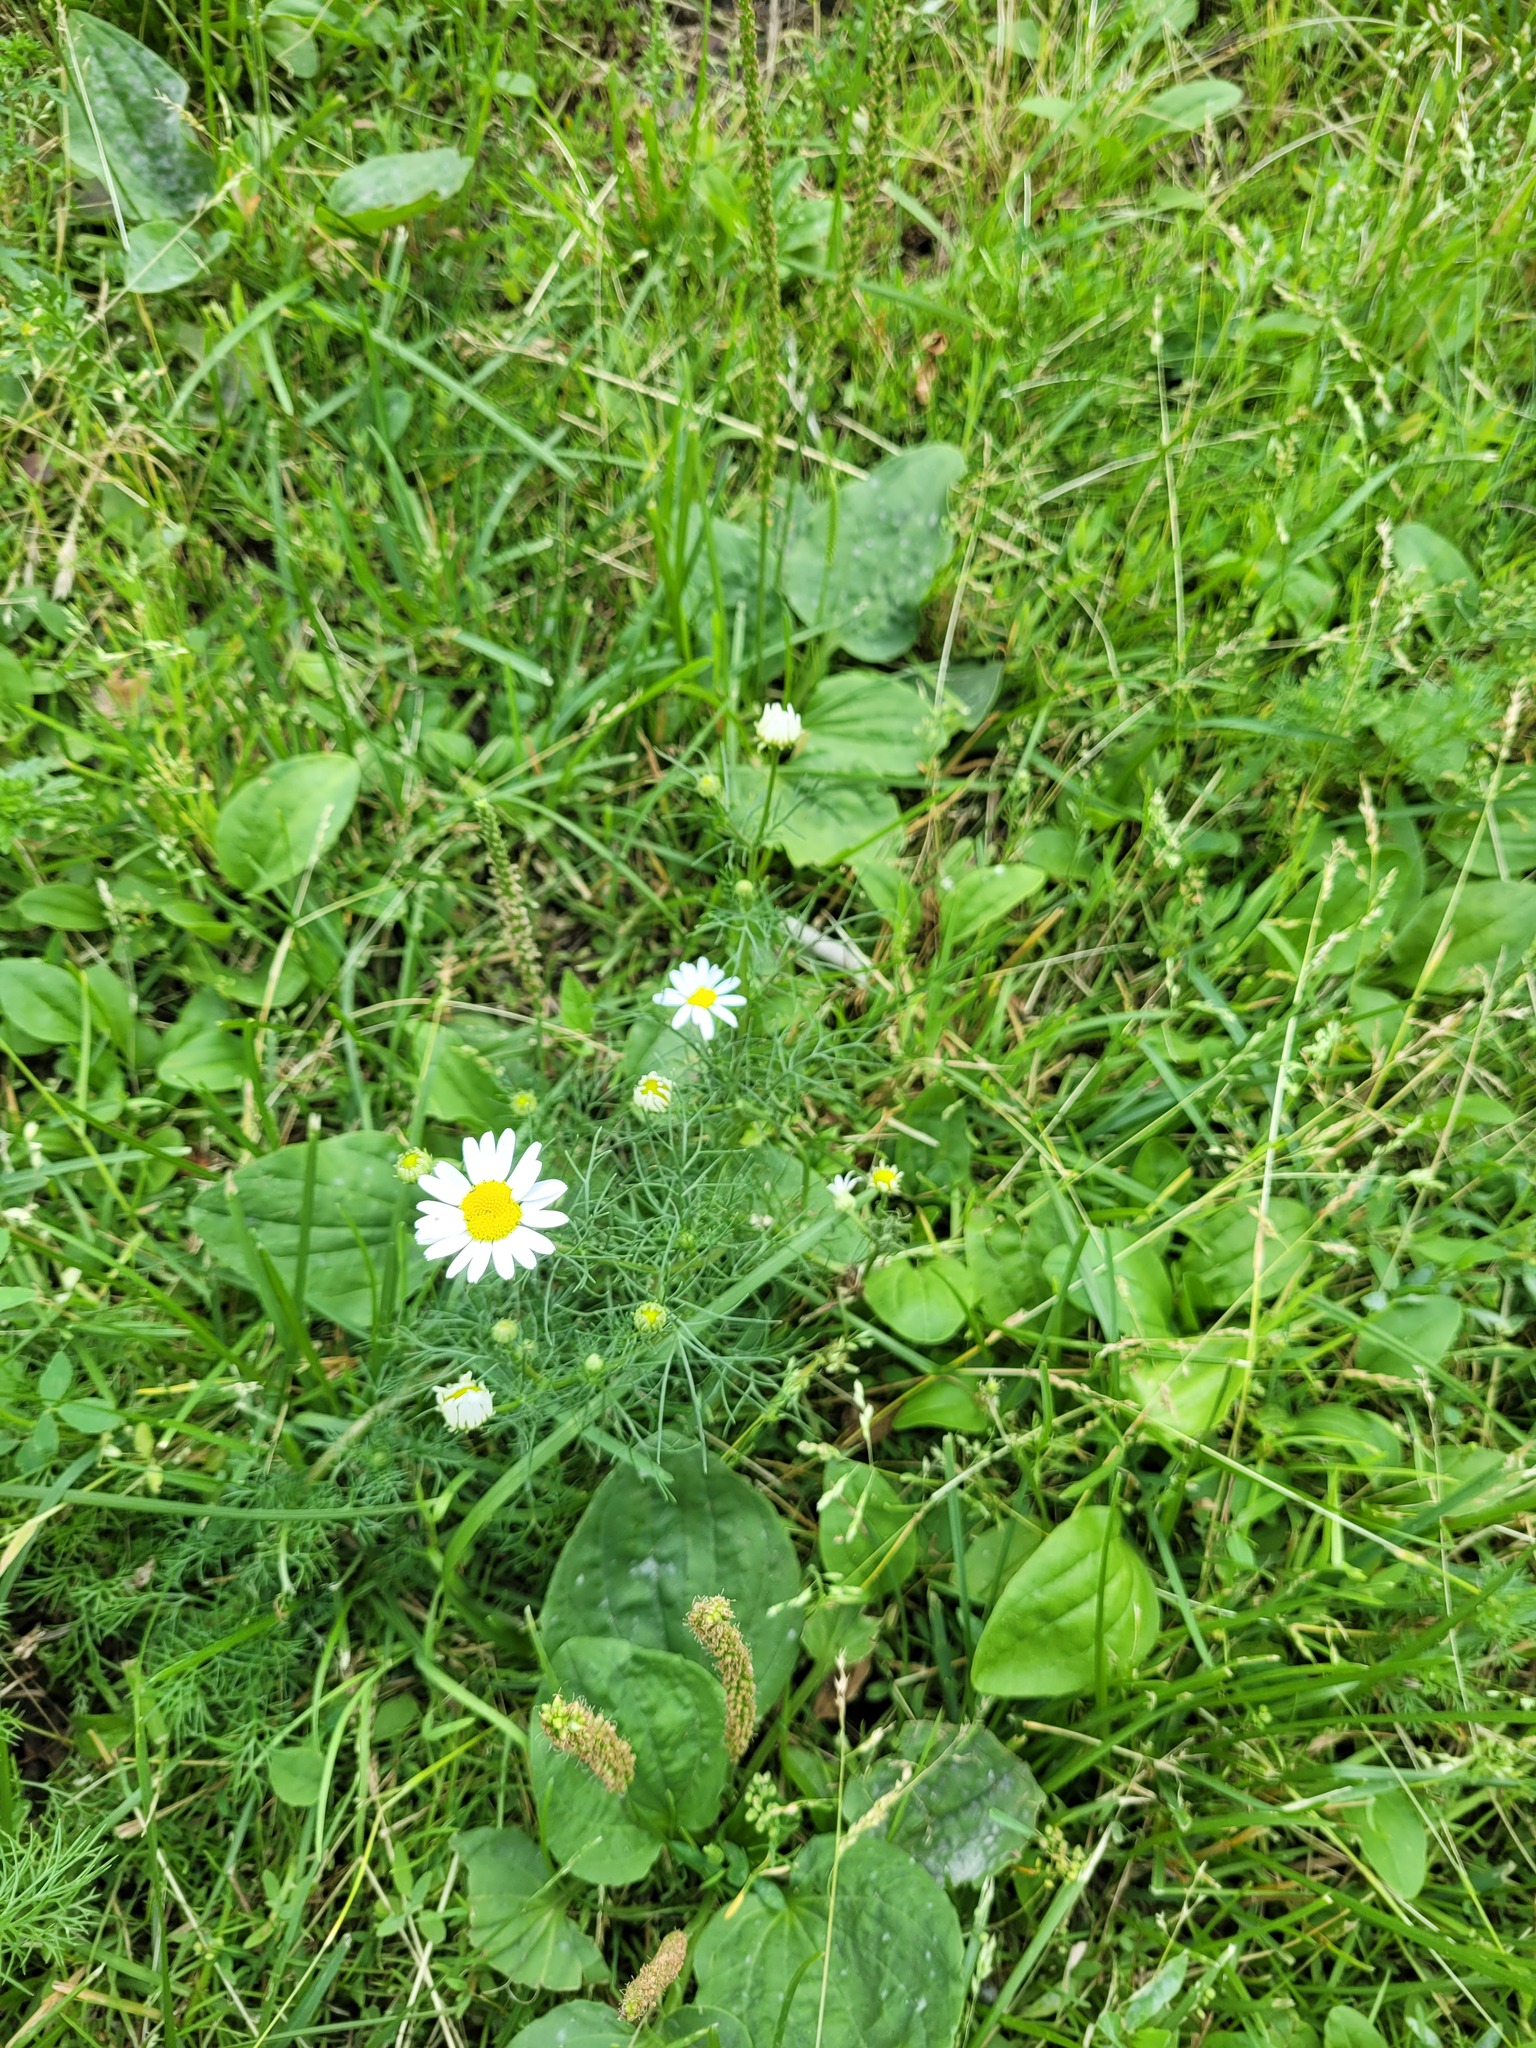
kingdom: Plantae
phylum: Tracheophyta
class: Magnoliopsida
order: Asterales
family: Asteraceae
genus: Tripleurospermum
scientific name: Tripleurospermum inodorum
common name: Scentless mayweed
